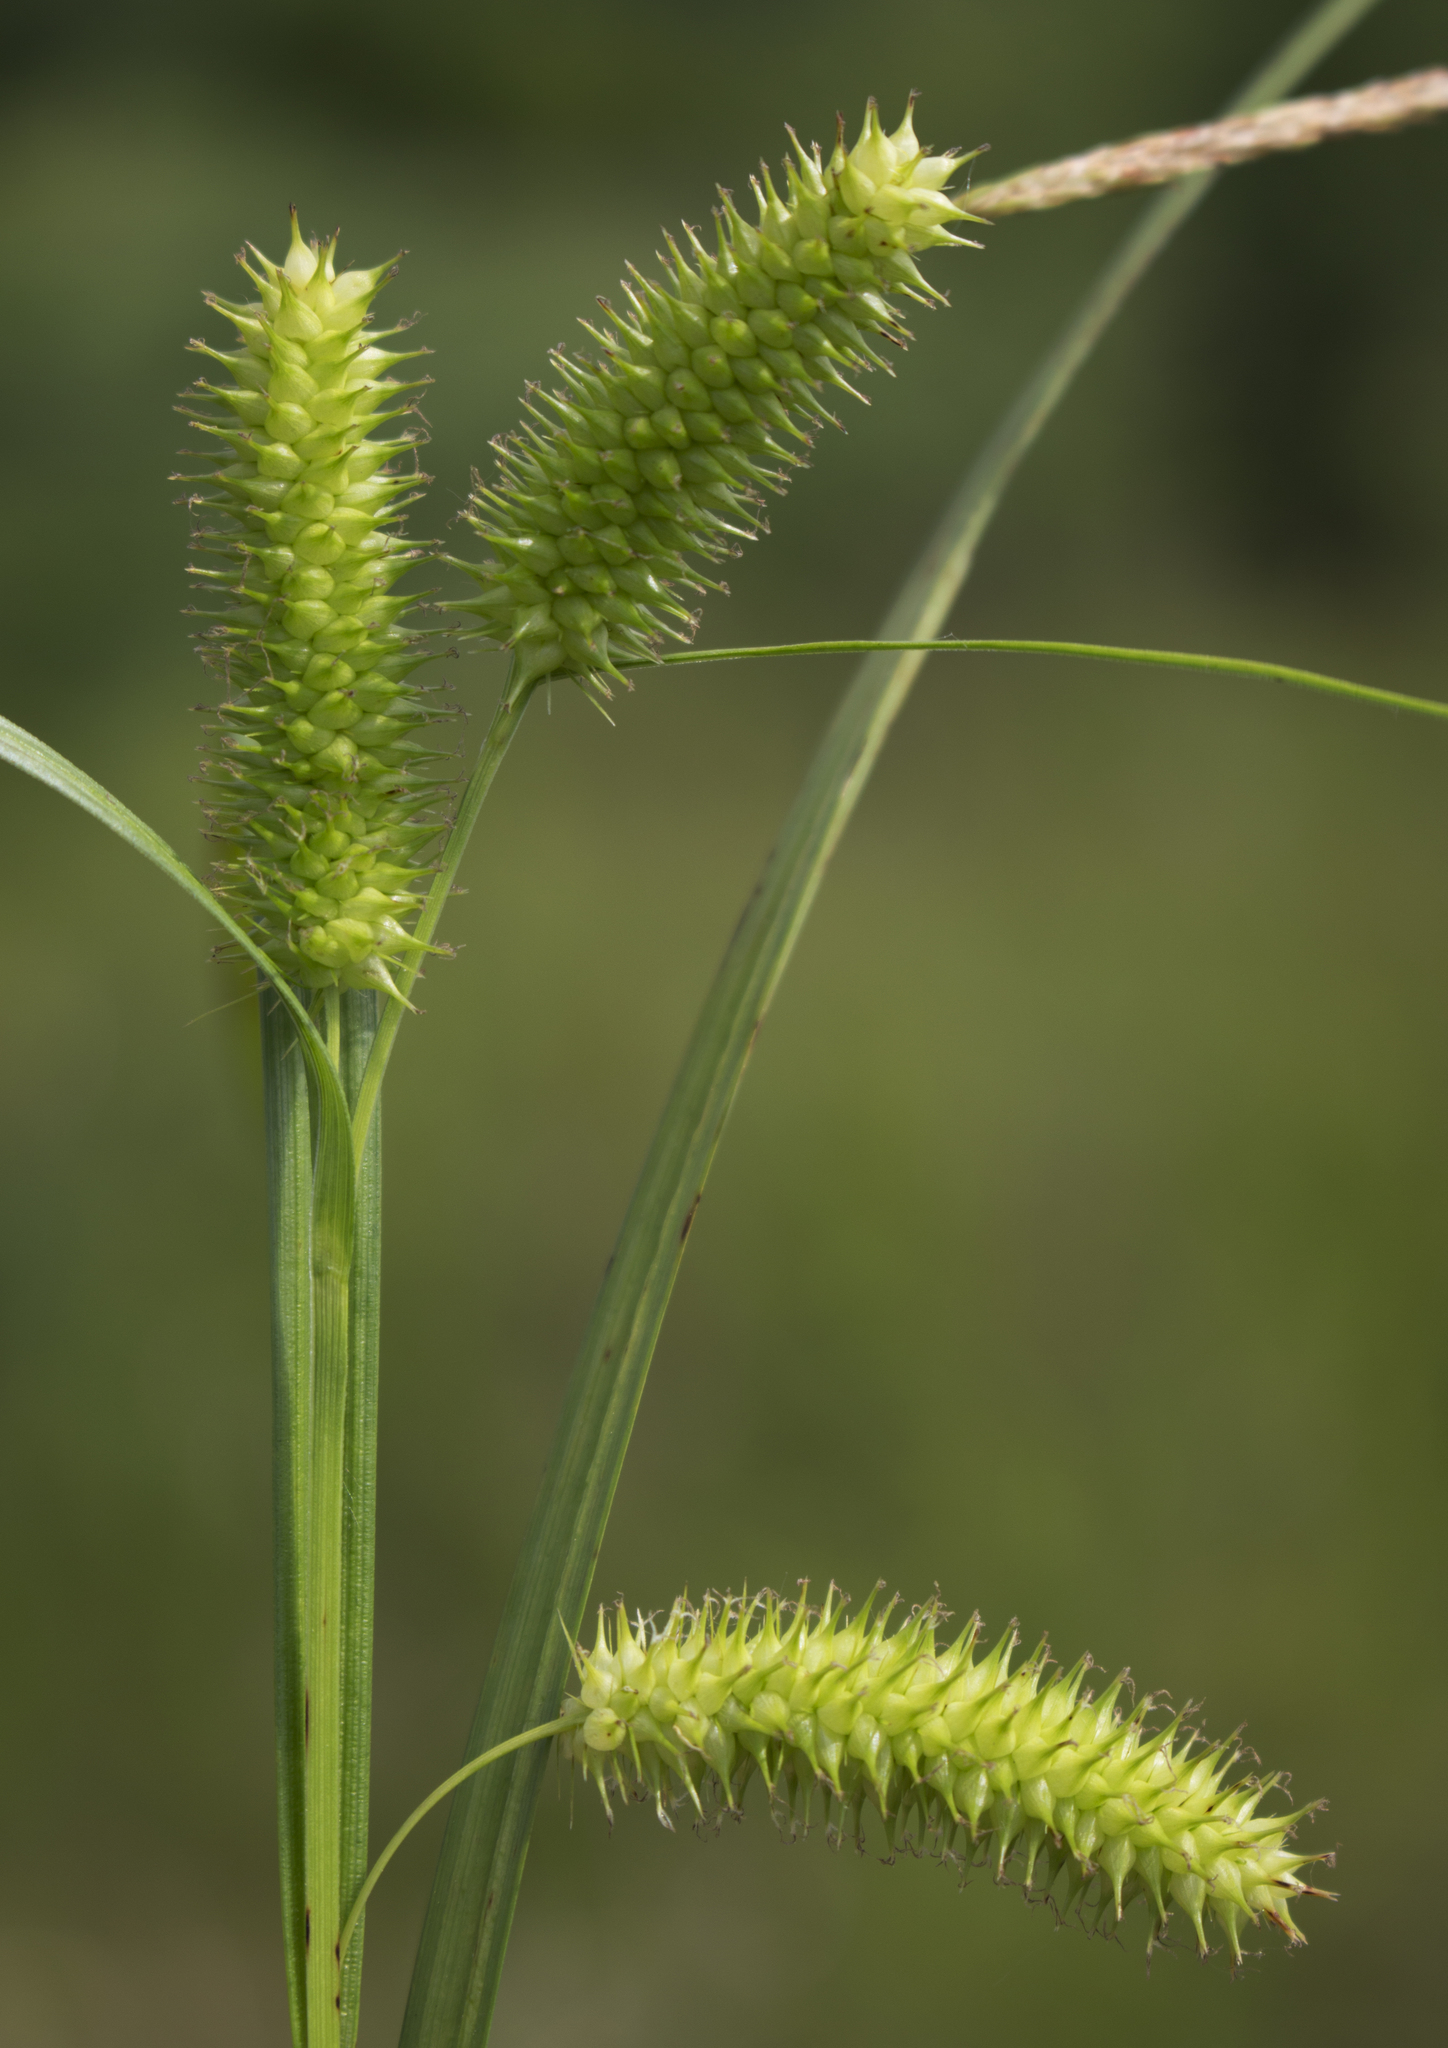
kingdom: Plantae
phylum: Tracheophyta
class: Liliopsida
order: Poales
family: Cyperaceae
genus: Carex
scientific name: Carex hystericina
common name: Bottlebrush sedge
